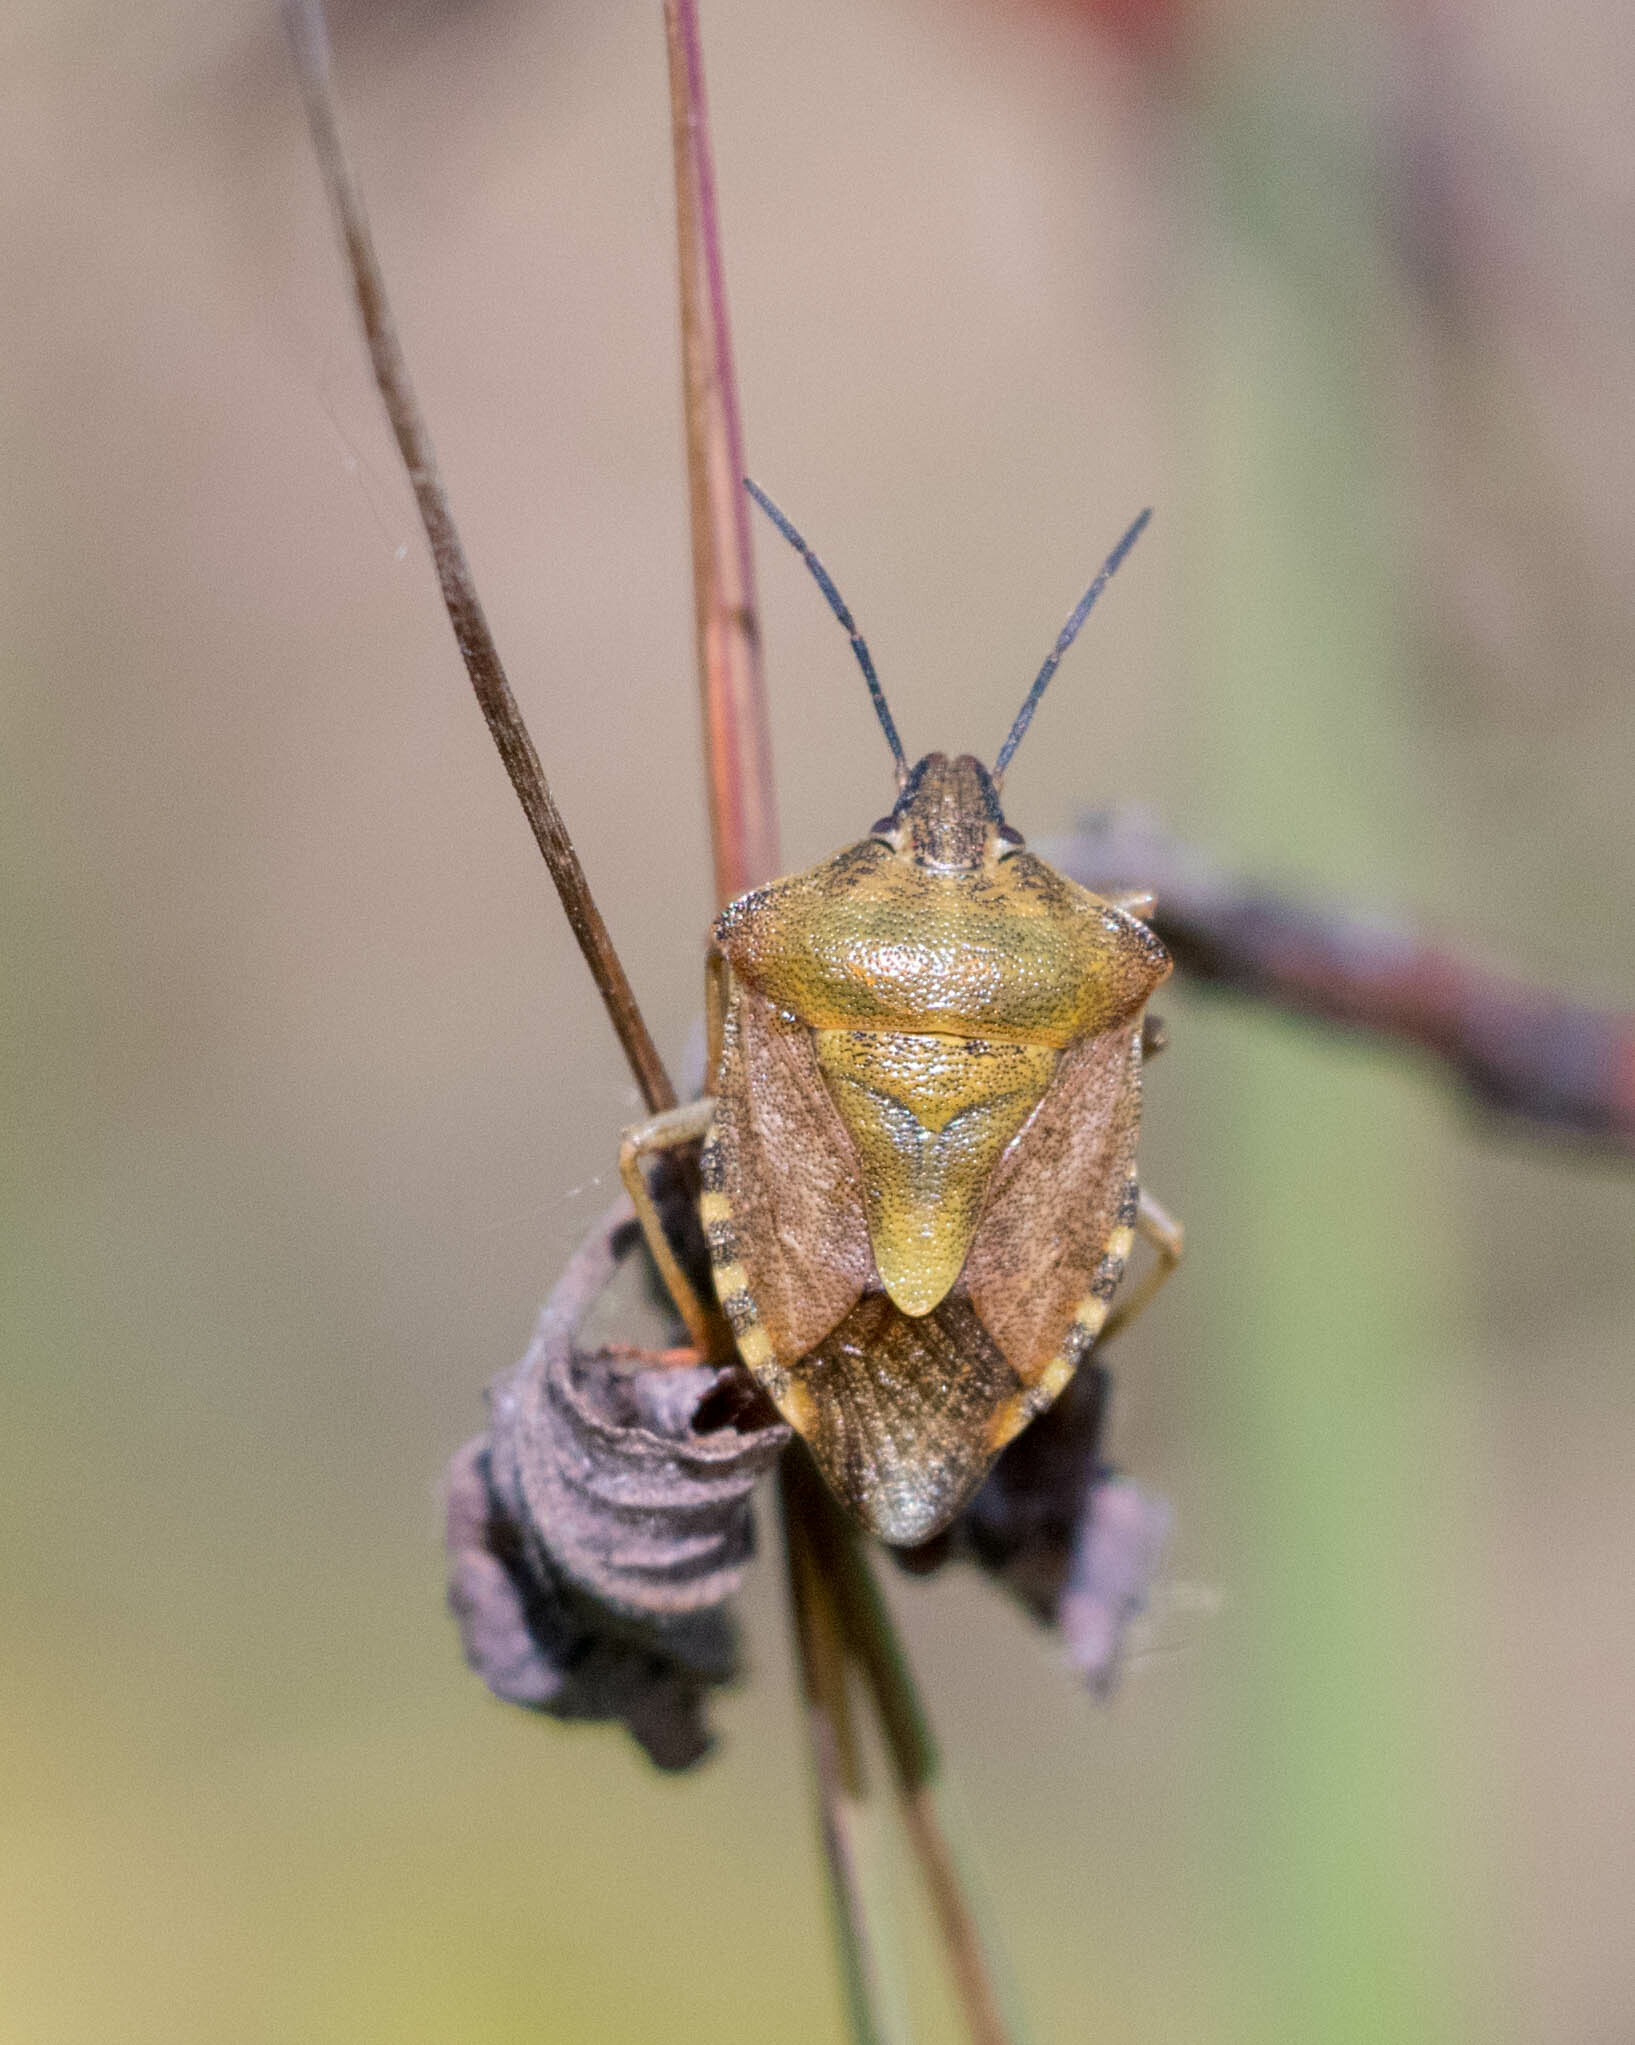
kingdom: Animalia
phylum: Arthropoda
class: Insecta
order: Hemiptera
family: Pentatomidae
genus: Carpocoris
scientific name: Carpocoris purpureipennis
